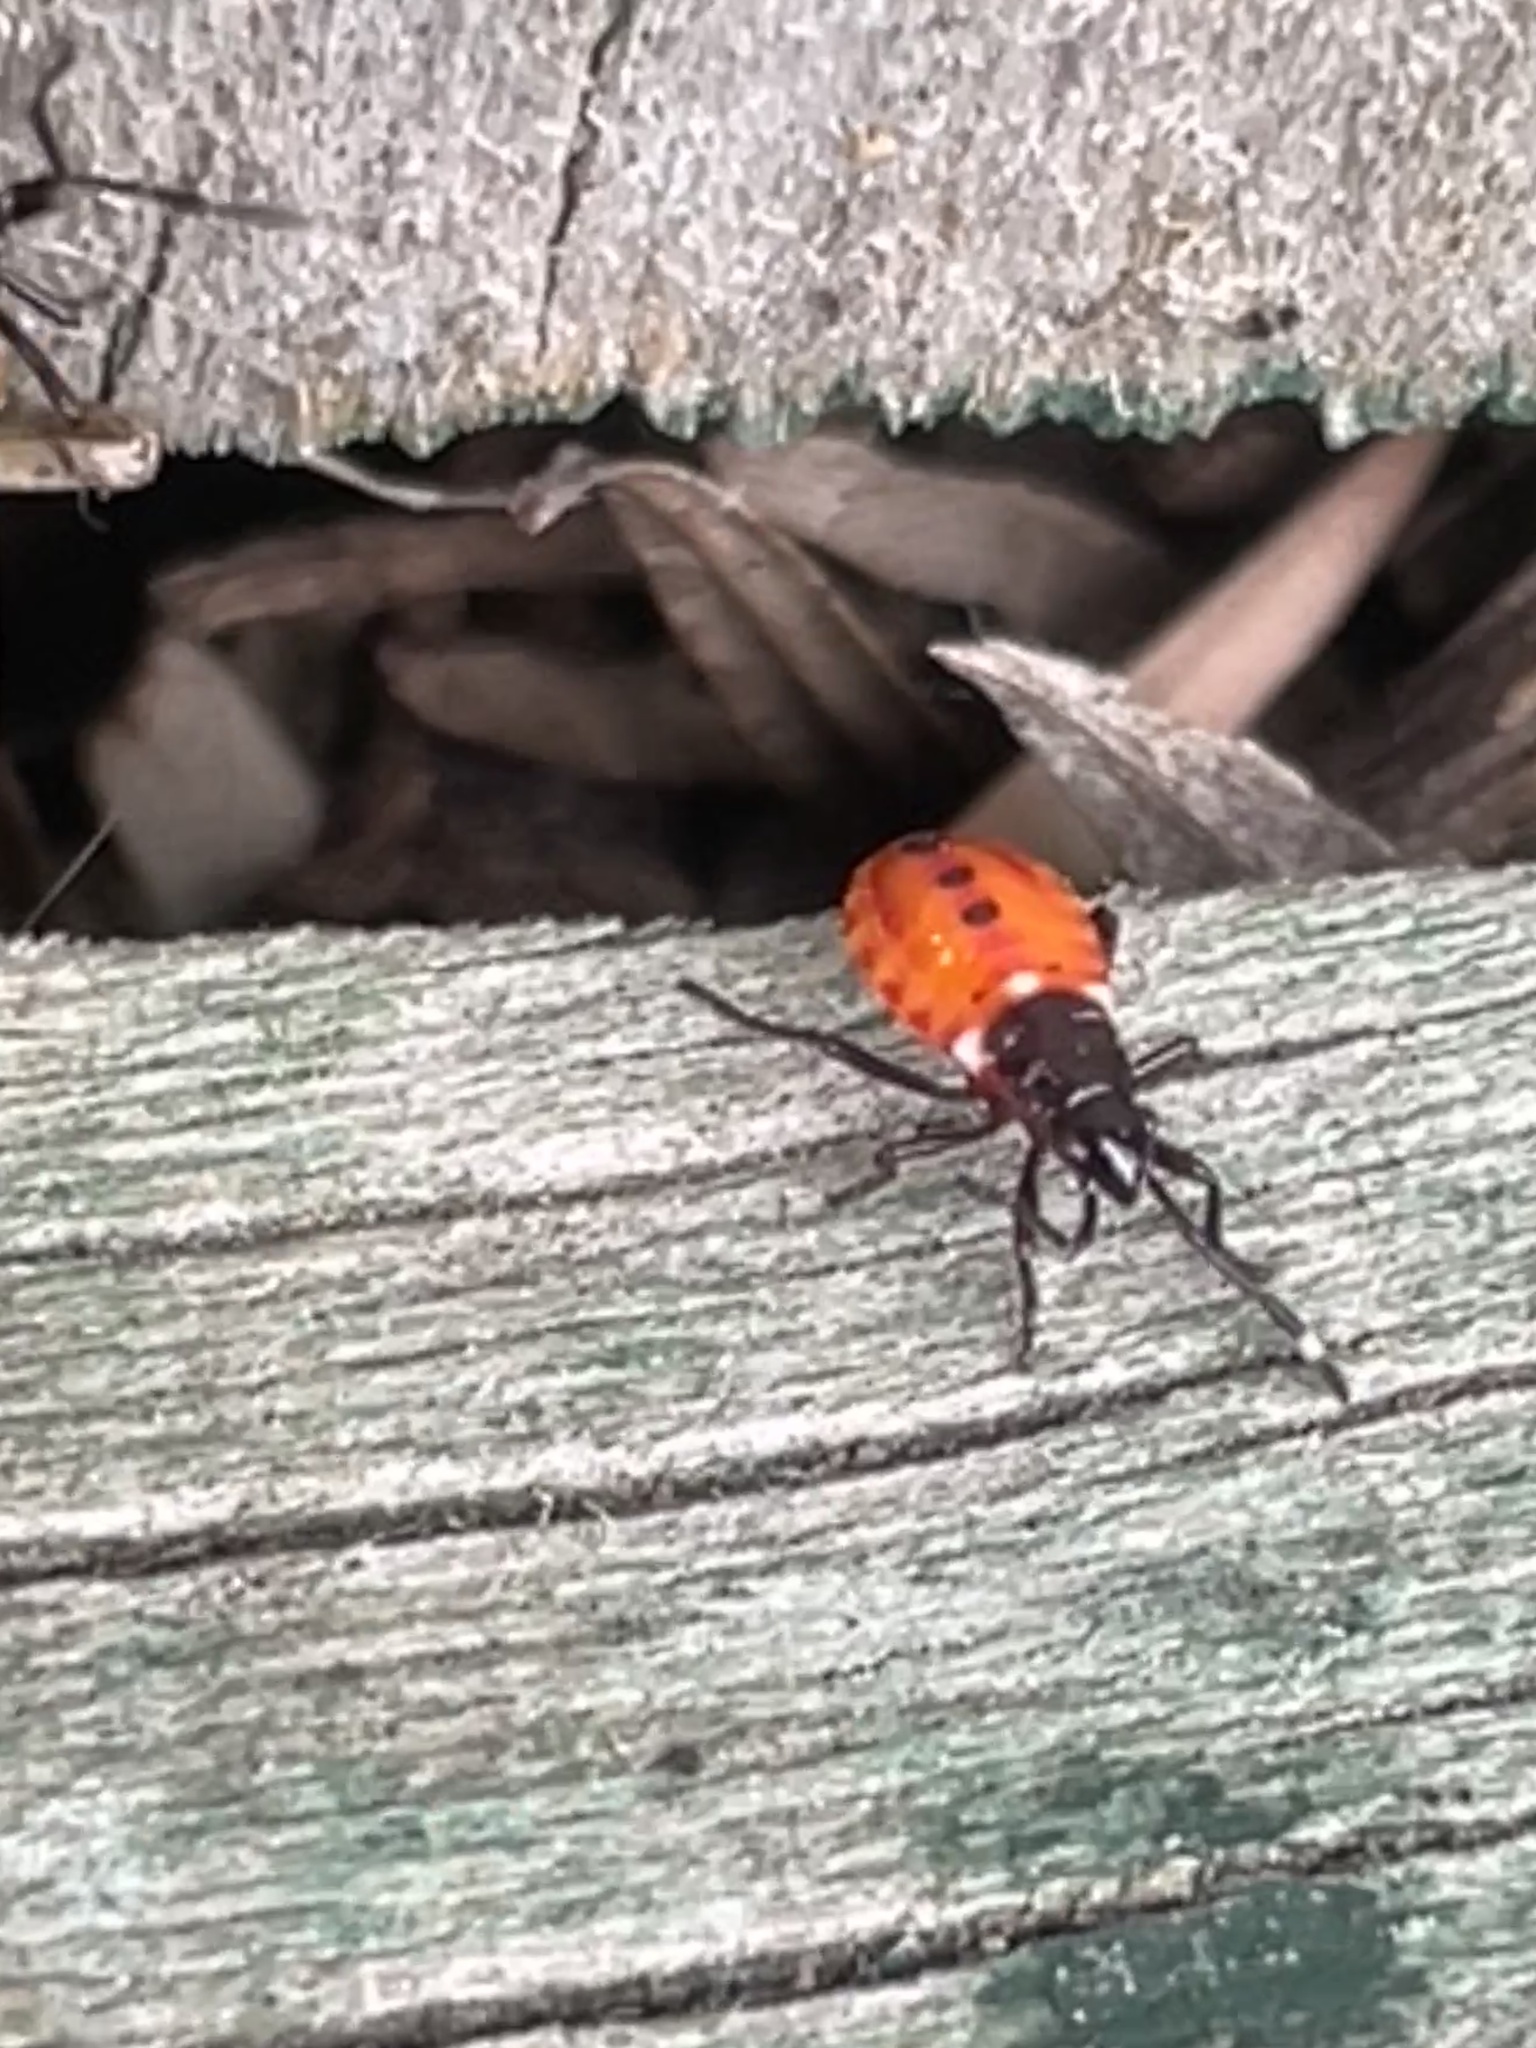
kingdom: Animalia
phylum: Arthropoda
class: Insecta
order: Hemiptera
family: Pyrrhocoridae
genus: Dindymus
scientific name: Dindymus
